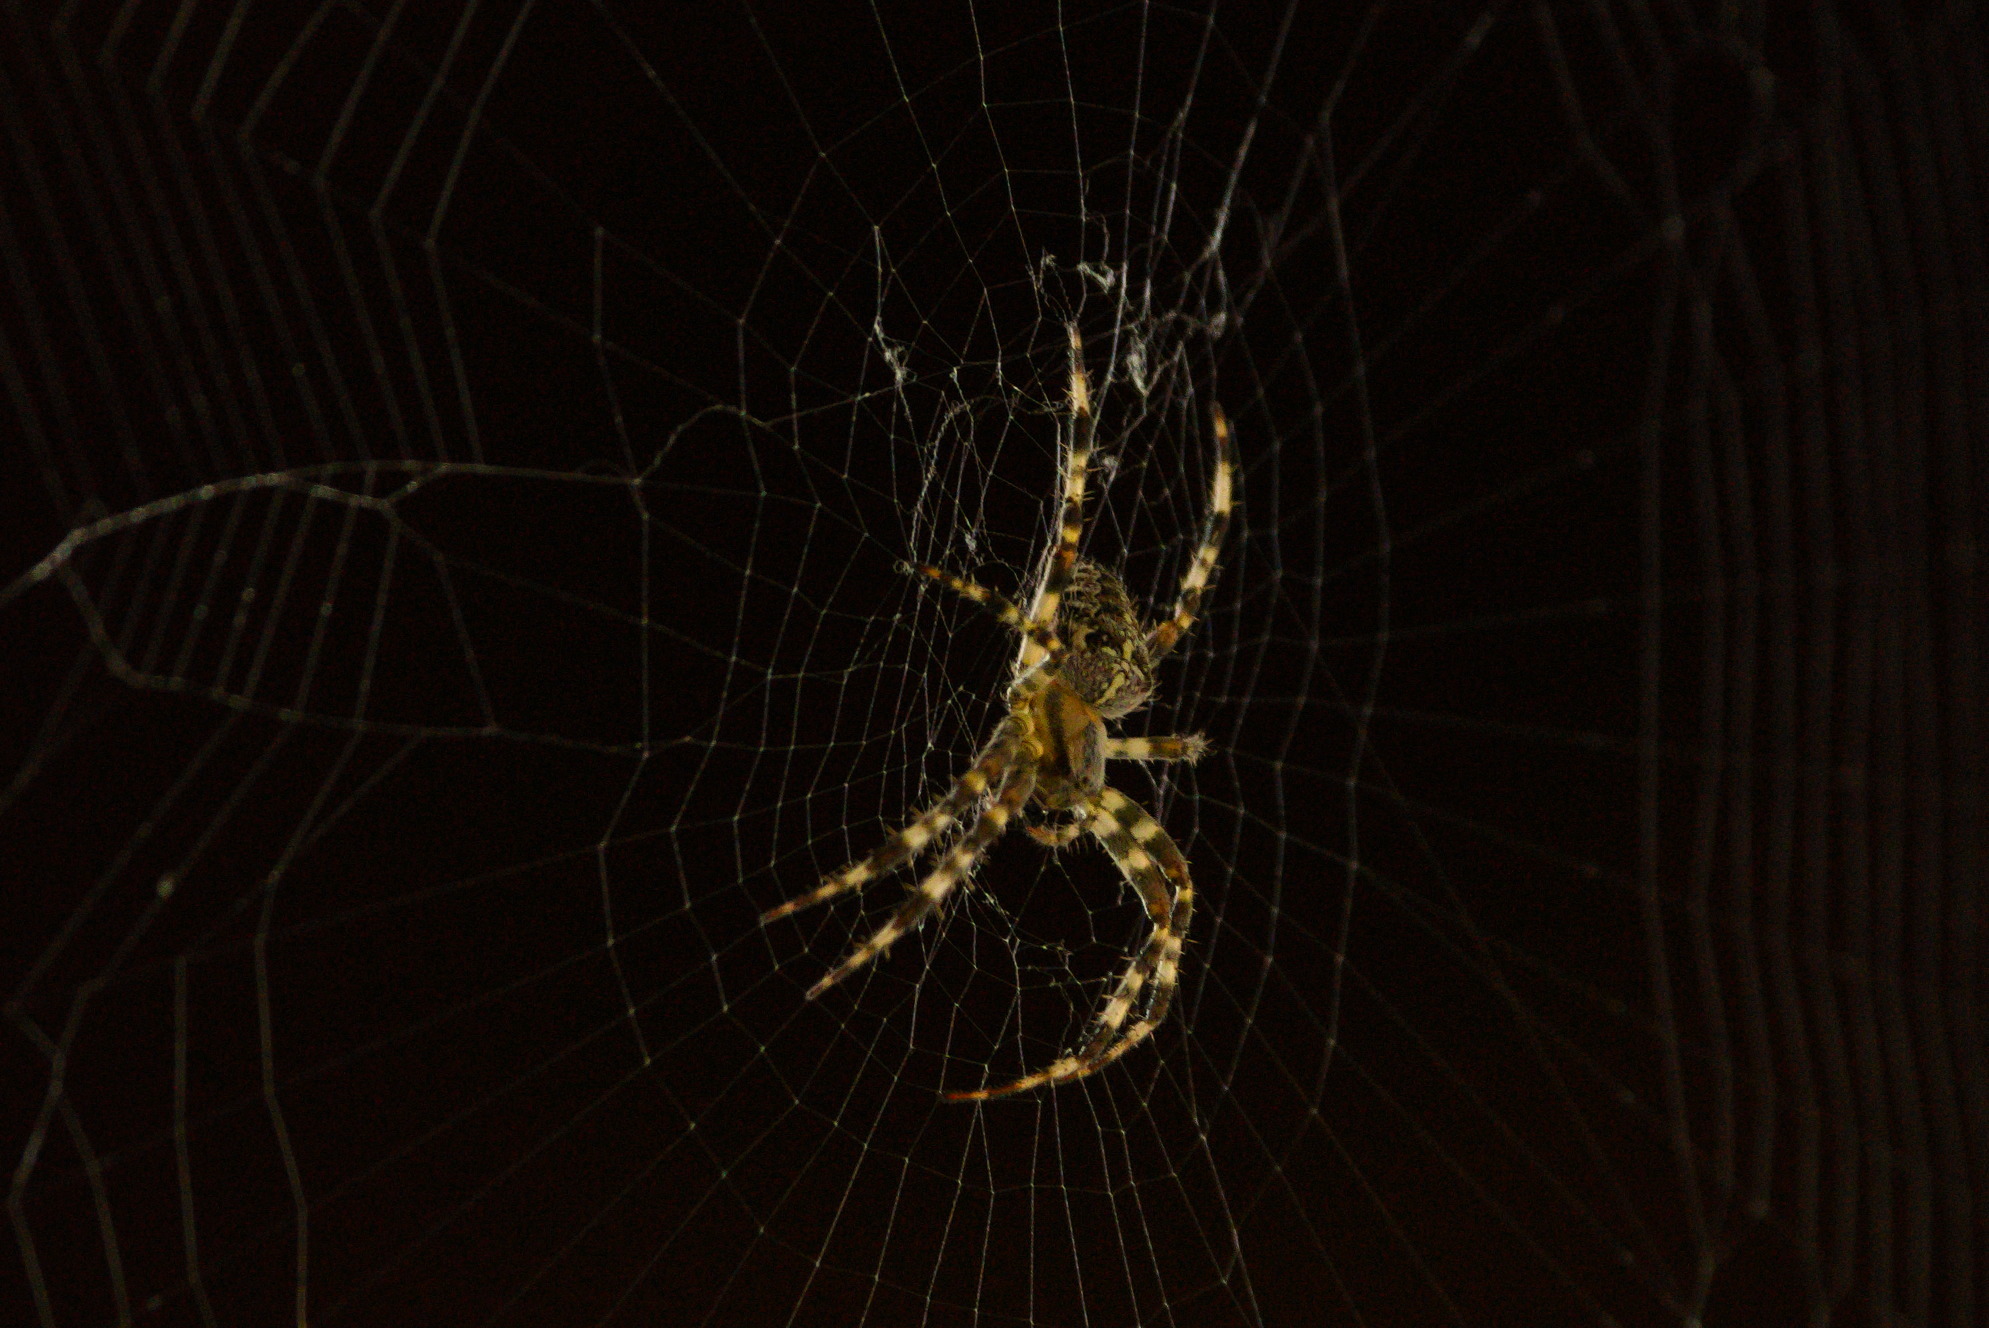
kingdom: Animalia
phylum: Arthropoda
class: Arachnida
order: Araneae
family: Araneidae
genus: Araneus
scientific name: Araneus diadematus
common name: Cross orbweaver
